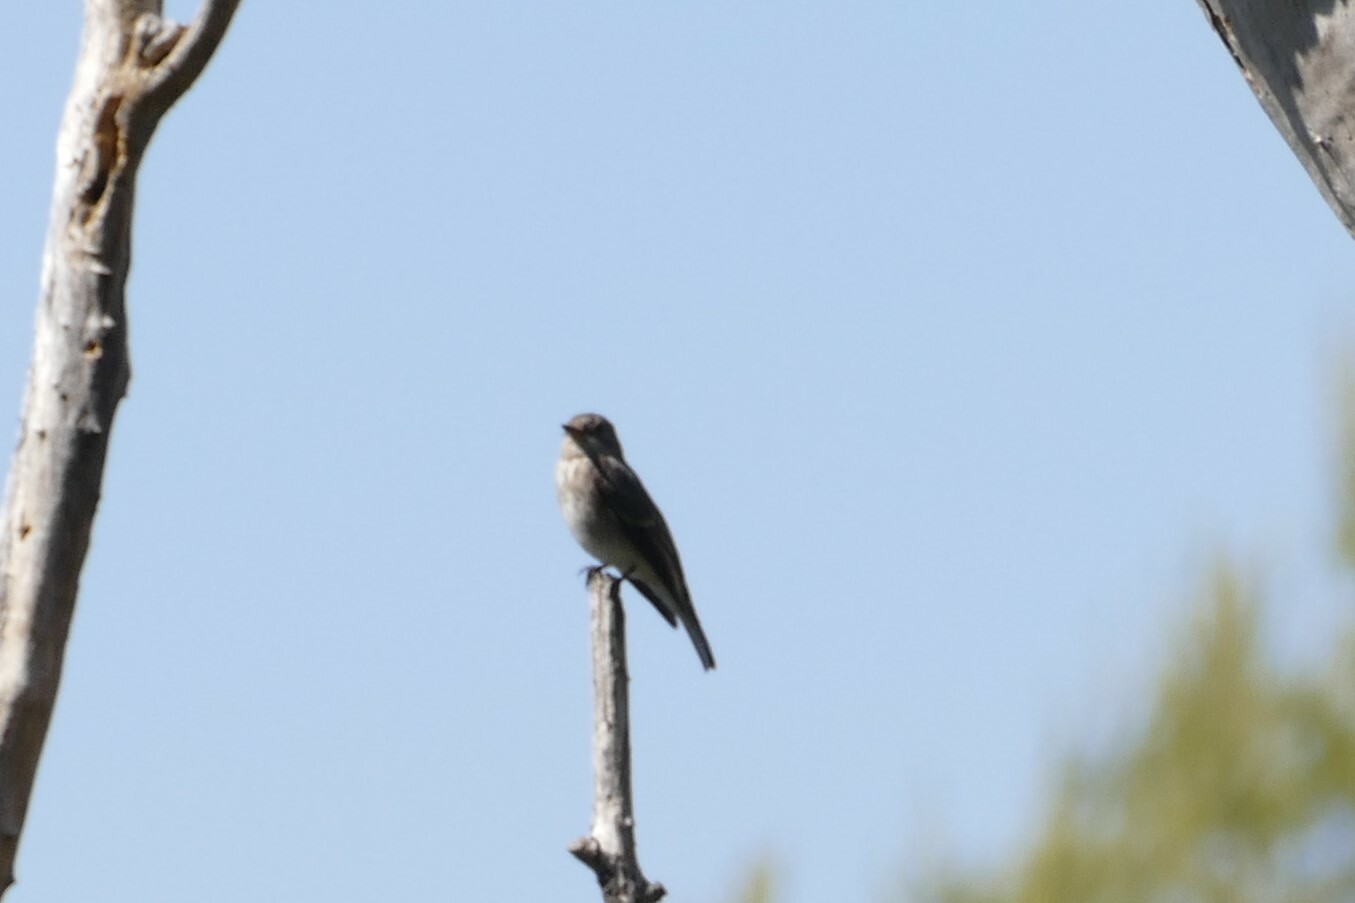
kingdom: Animalia
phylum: Chordata
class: Aves
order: Passeriformes
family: Muscicapidae
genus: Muscicapa
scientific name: Muscicapa striata
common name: Spotted flycatcher
